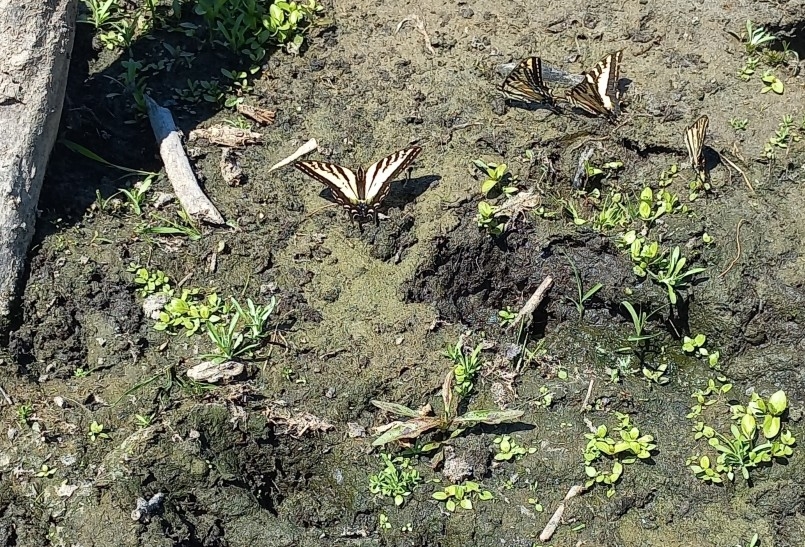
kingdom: Animalia
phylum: Arthropoda
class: Insecta
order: Lepidoptera
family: Papilionidae
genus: Papilio
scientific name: Papilio rutulus
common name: Western tiger swallowtail
